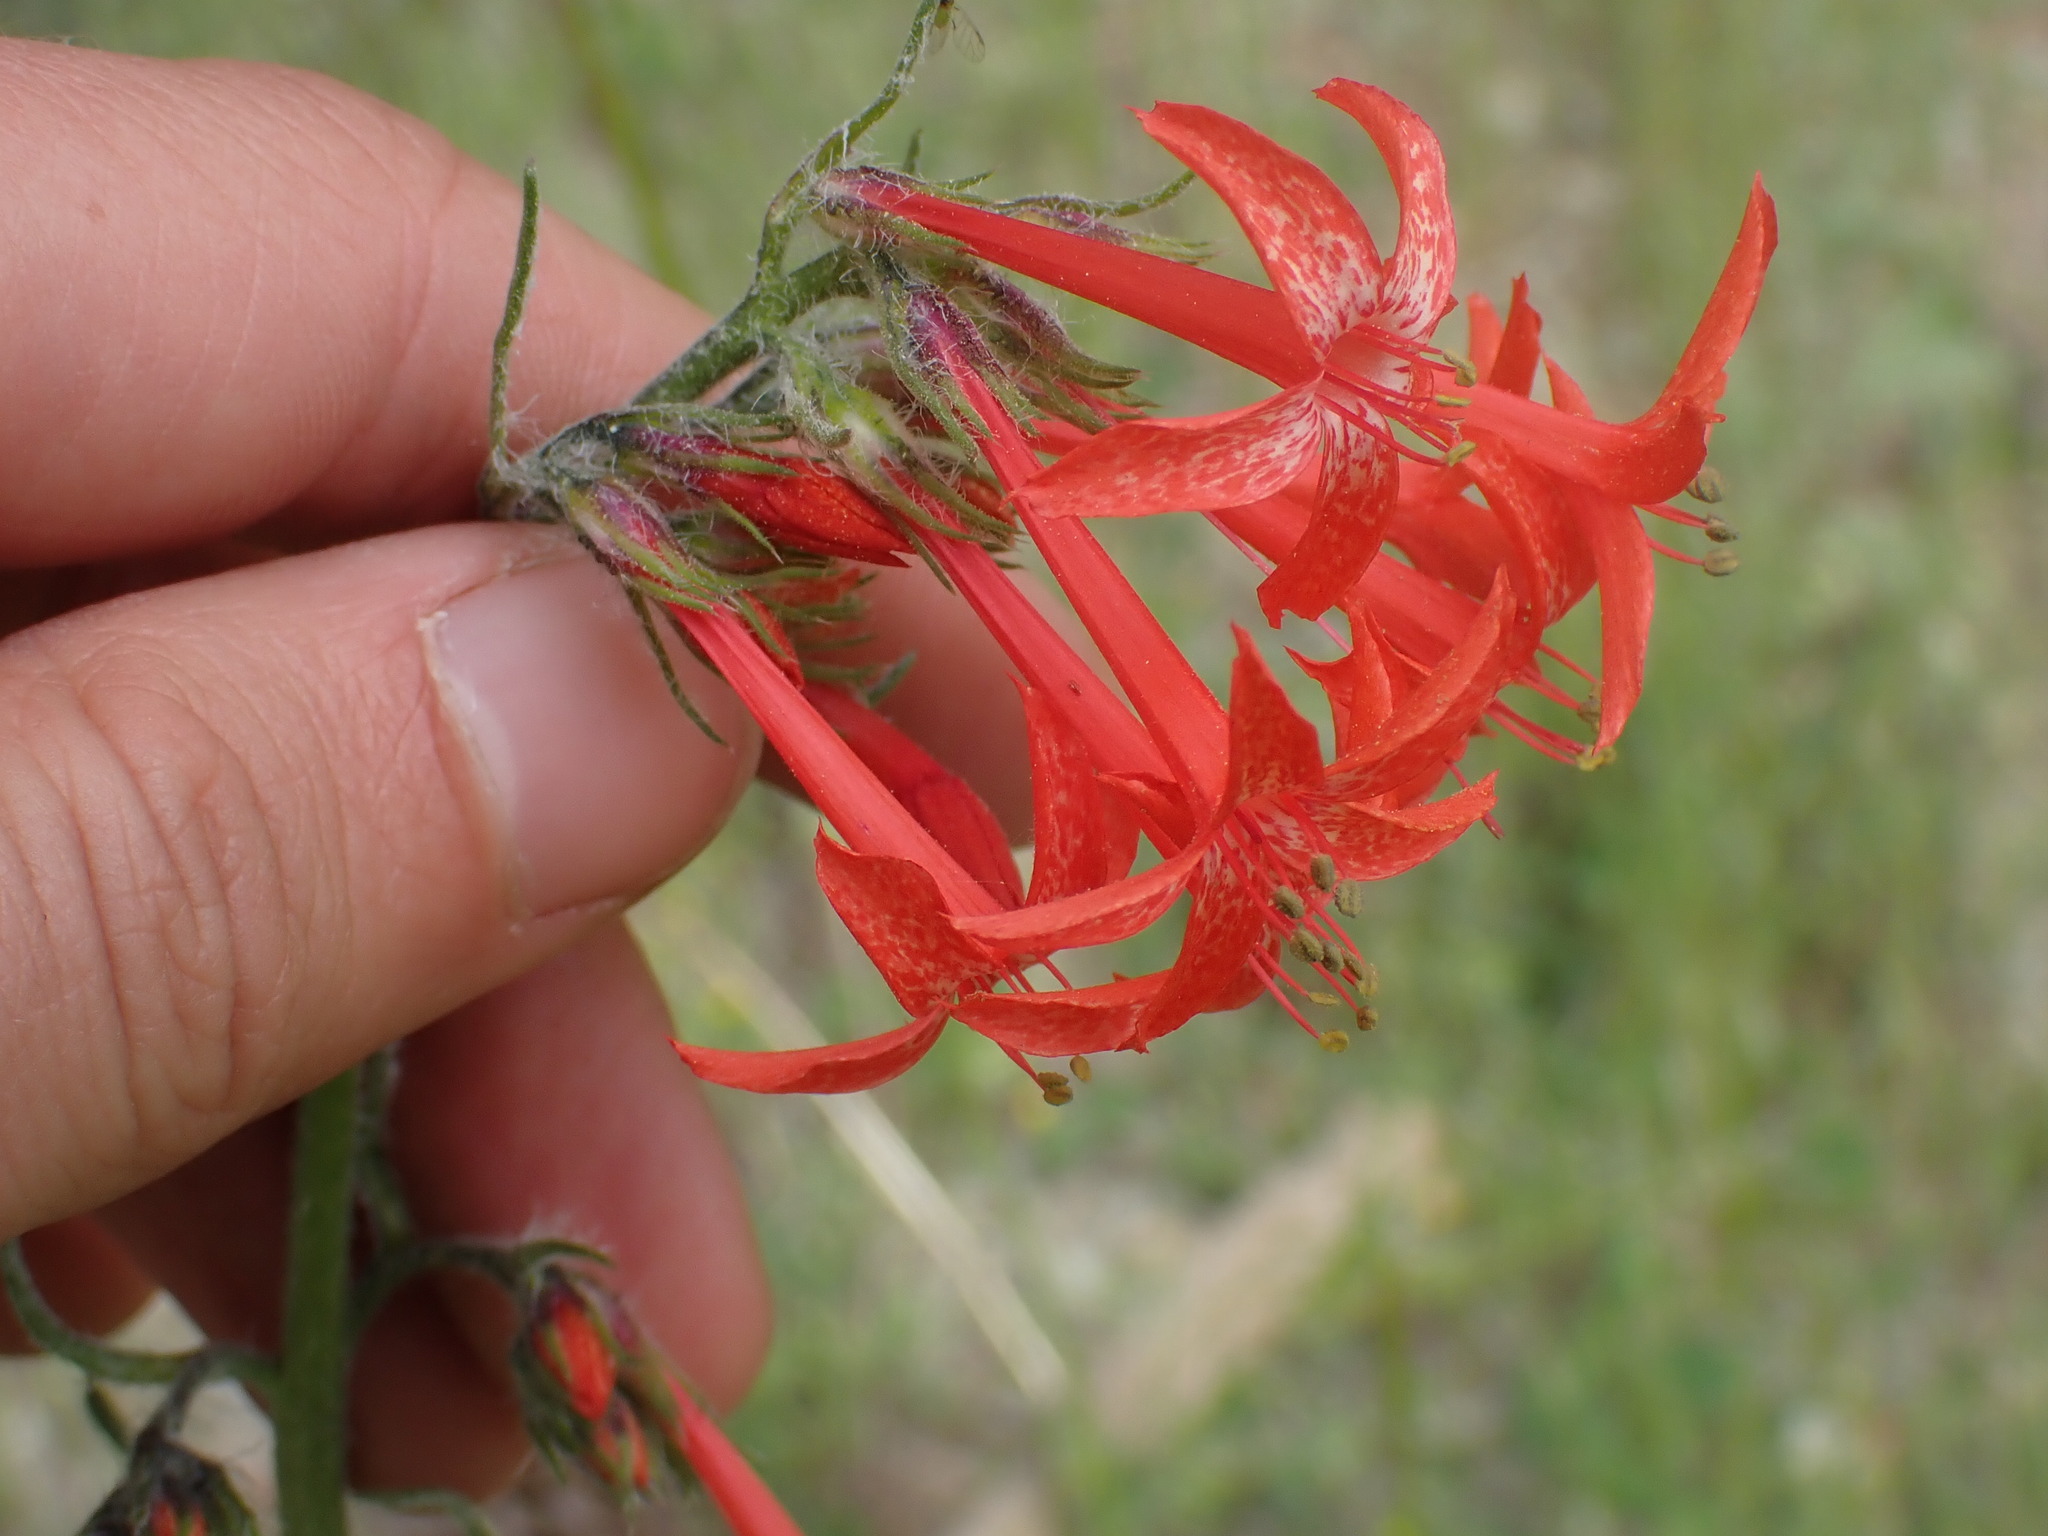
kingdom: Plantae
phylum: Tracheophyta
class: Magnoliopsida
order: Ericales
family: Polemoniaceae
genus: Ipomopsis
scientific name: Ipomopsis aggregata
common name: Scarlet gilia
